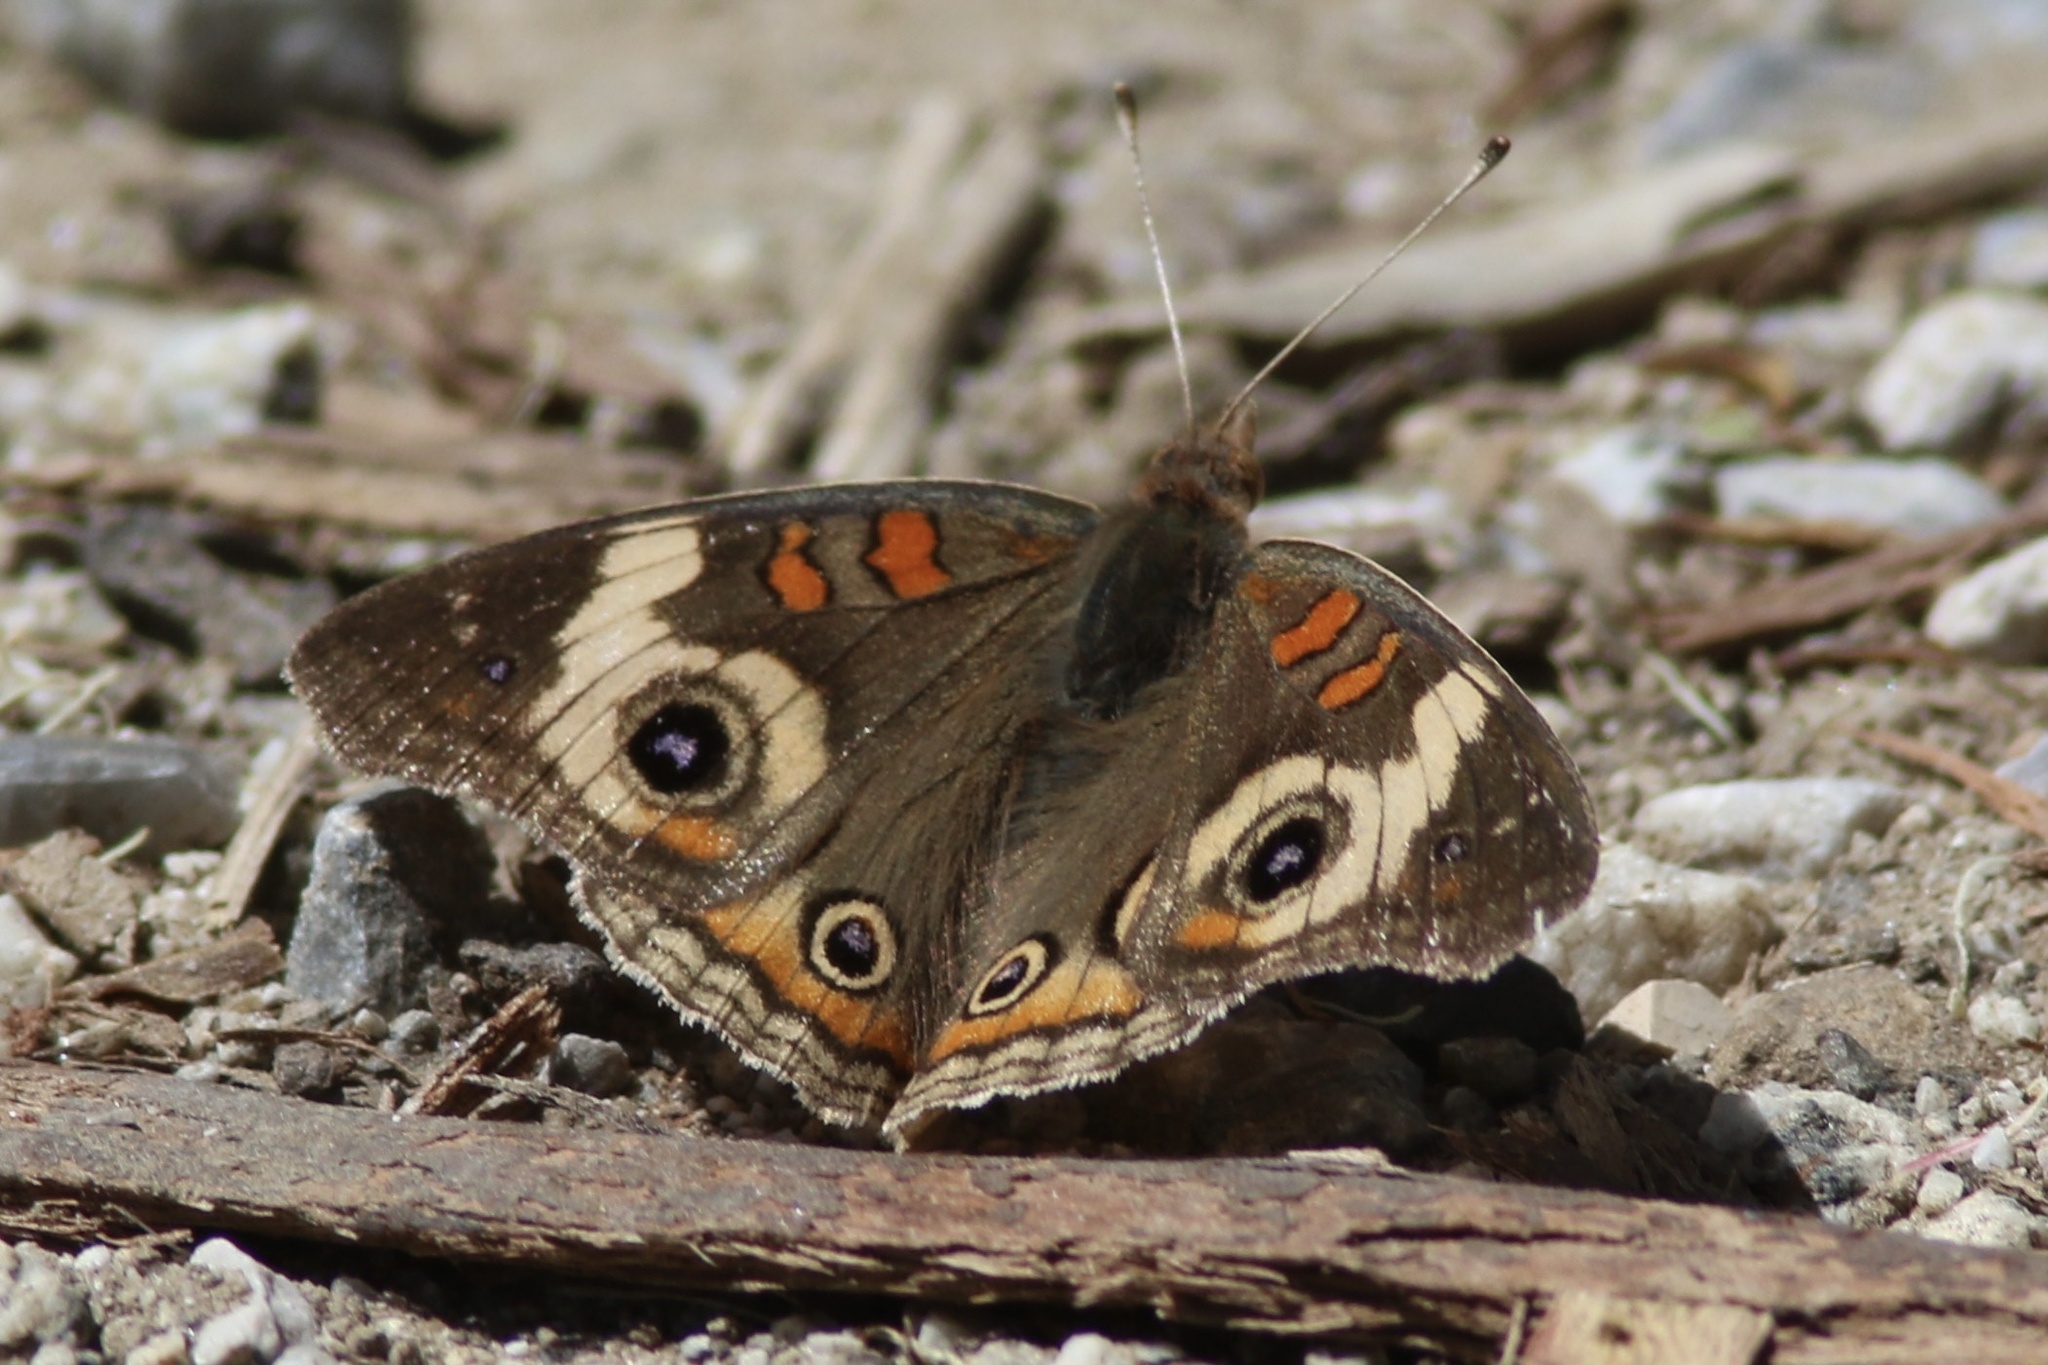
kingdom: Animalia
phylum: Arthropoda
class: Insecta
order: Lepidoptera
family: Nymphalidae
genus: Junonia
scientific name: Junonia grisea
